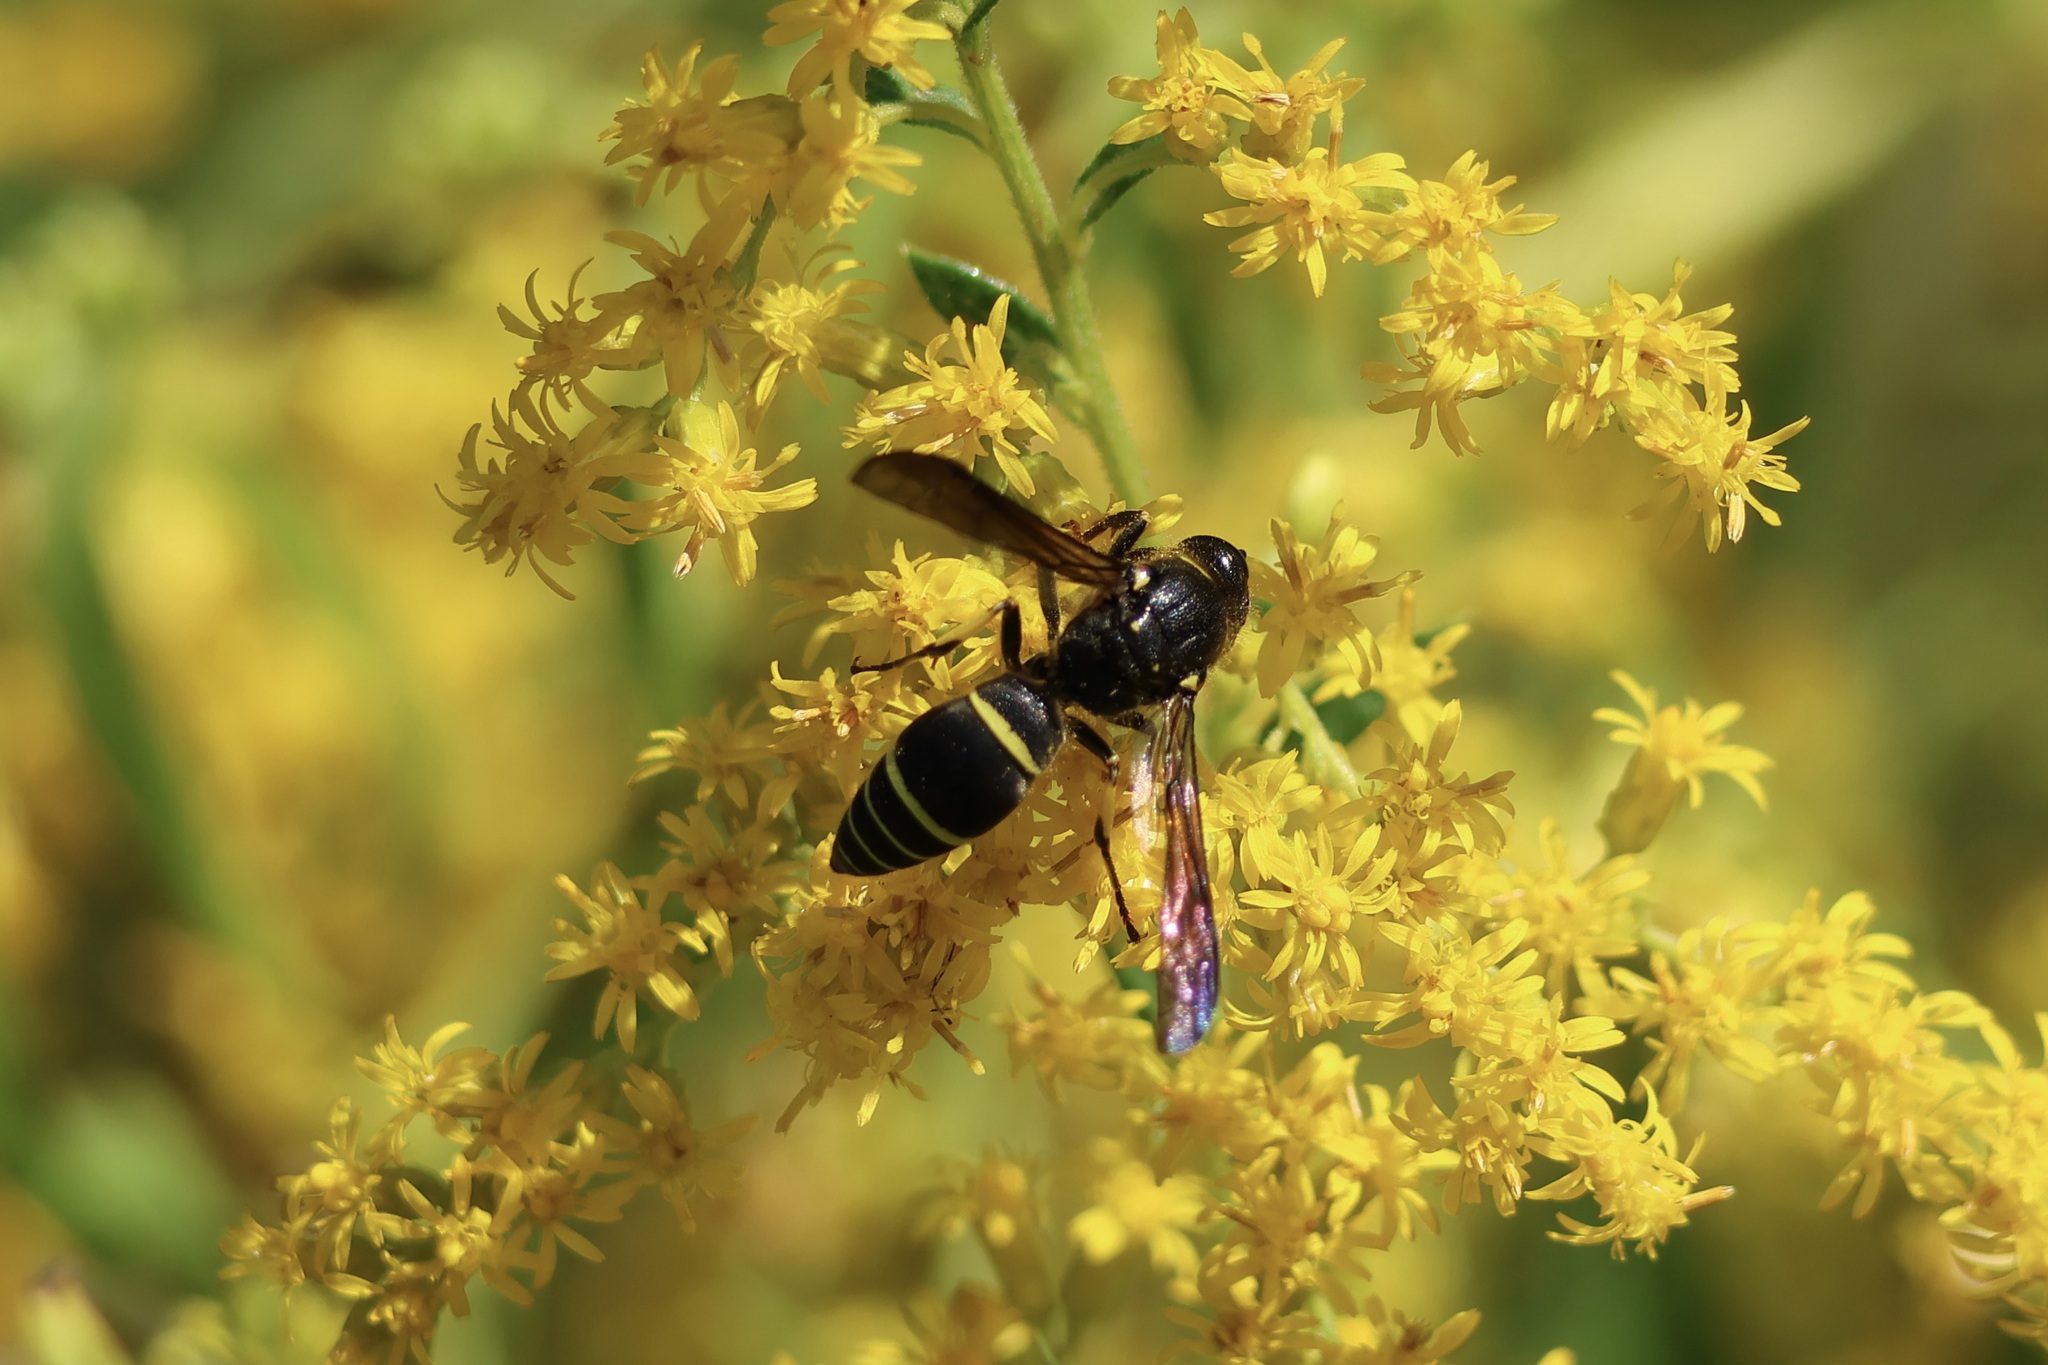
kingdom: Animalia
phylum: Arthropoda
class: Insecta
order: Hymenoptera
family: Vespidae
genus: Ancistrocerus
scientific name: Ancistrocerus
